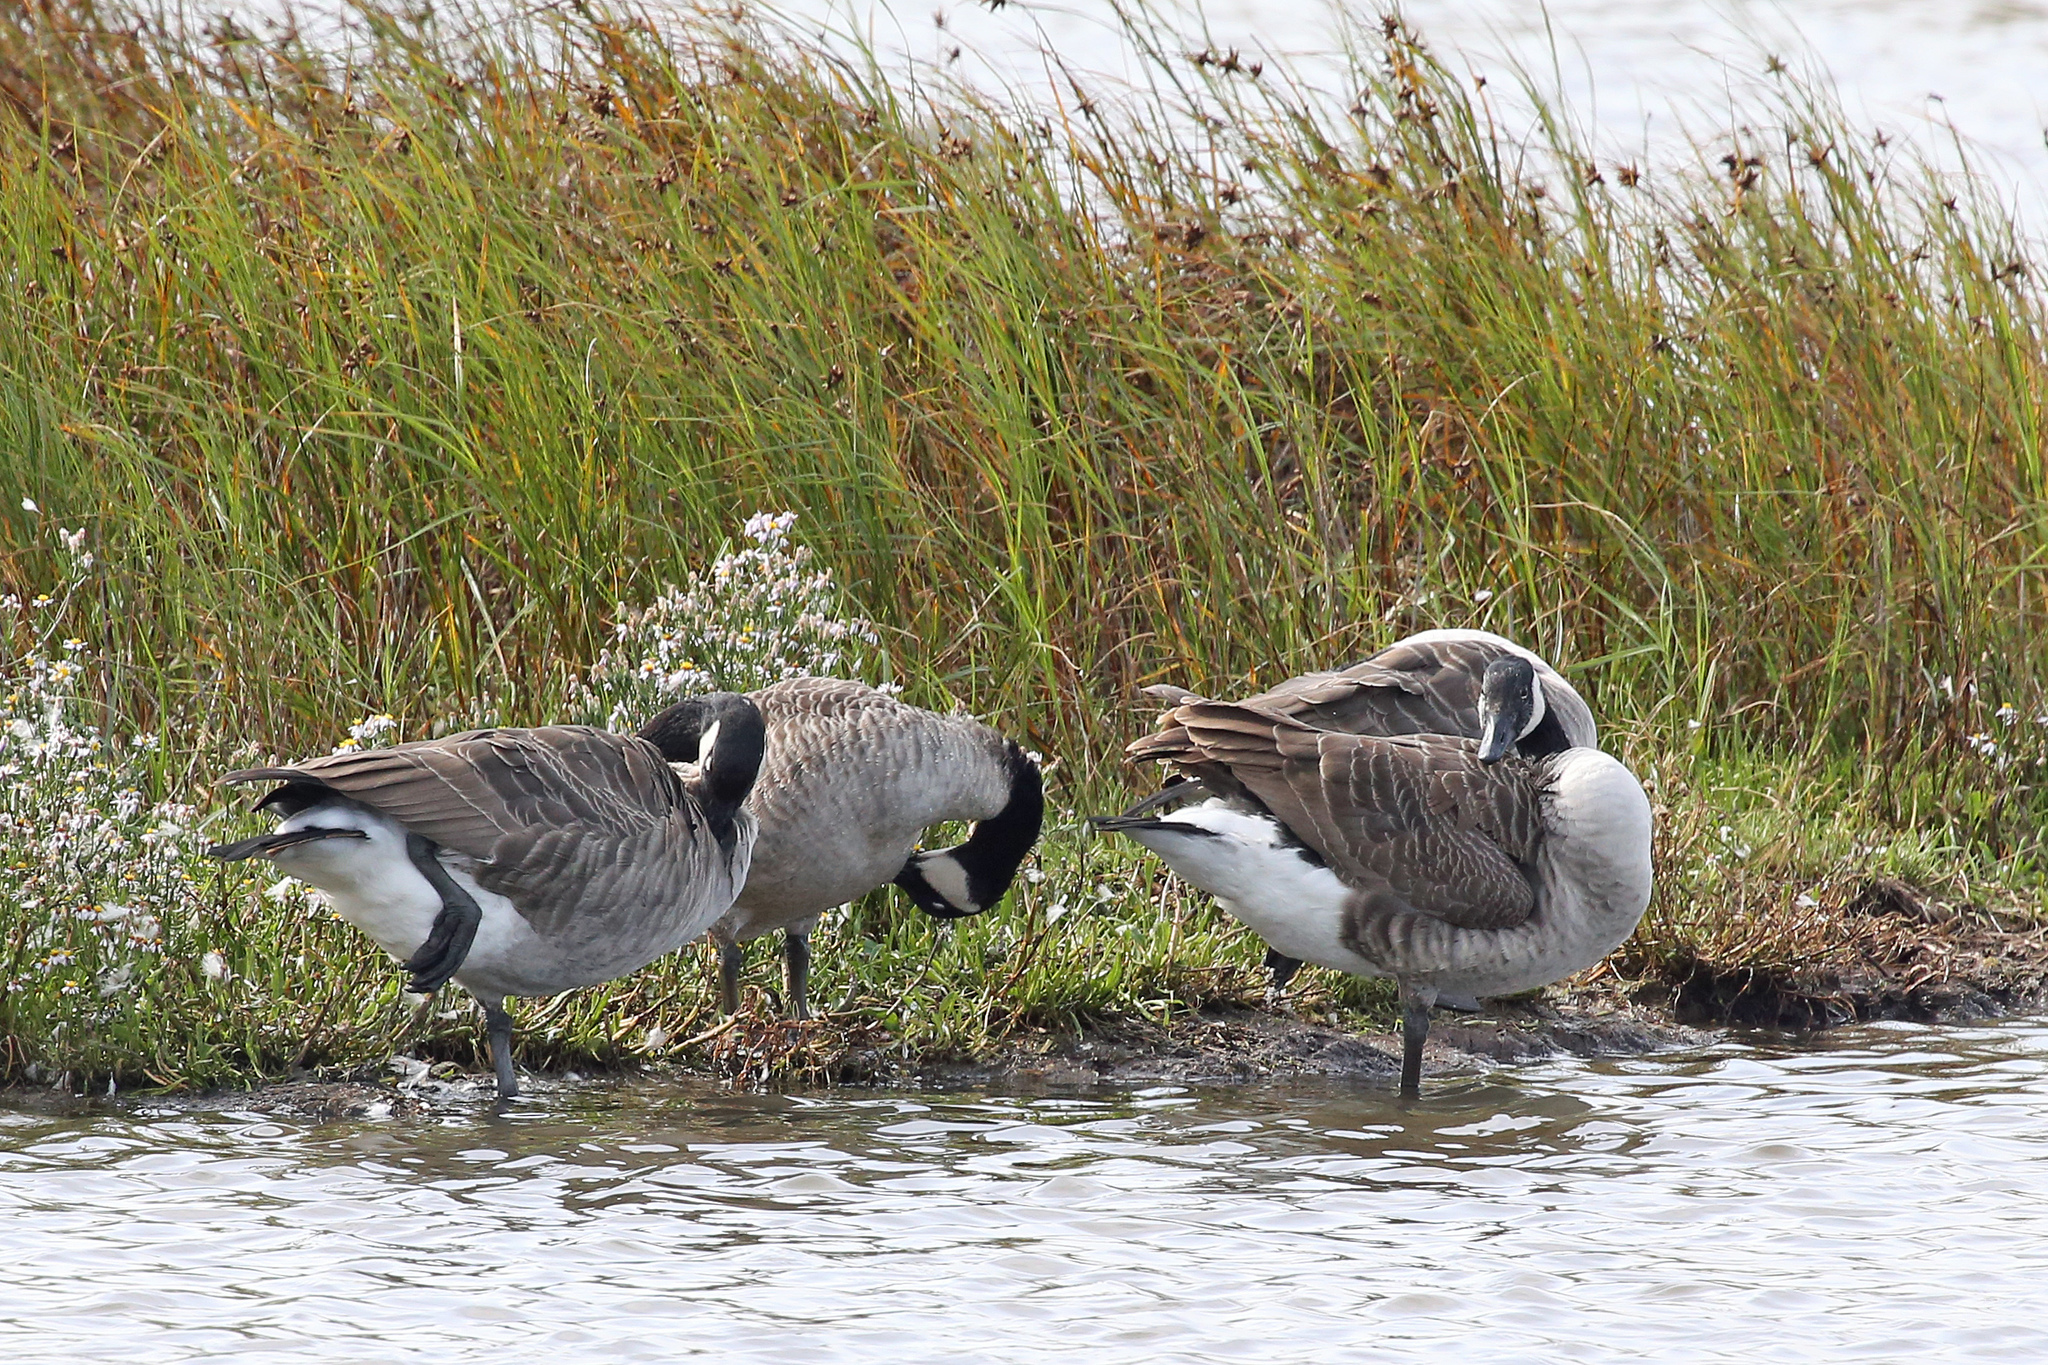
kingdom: Animalia
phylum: Chordata
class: Aves
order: Anseriformes
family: Anatidae
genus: Branta
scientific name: Branta canadensis
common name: Canada goose
